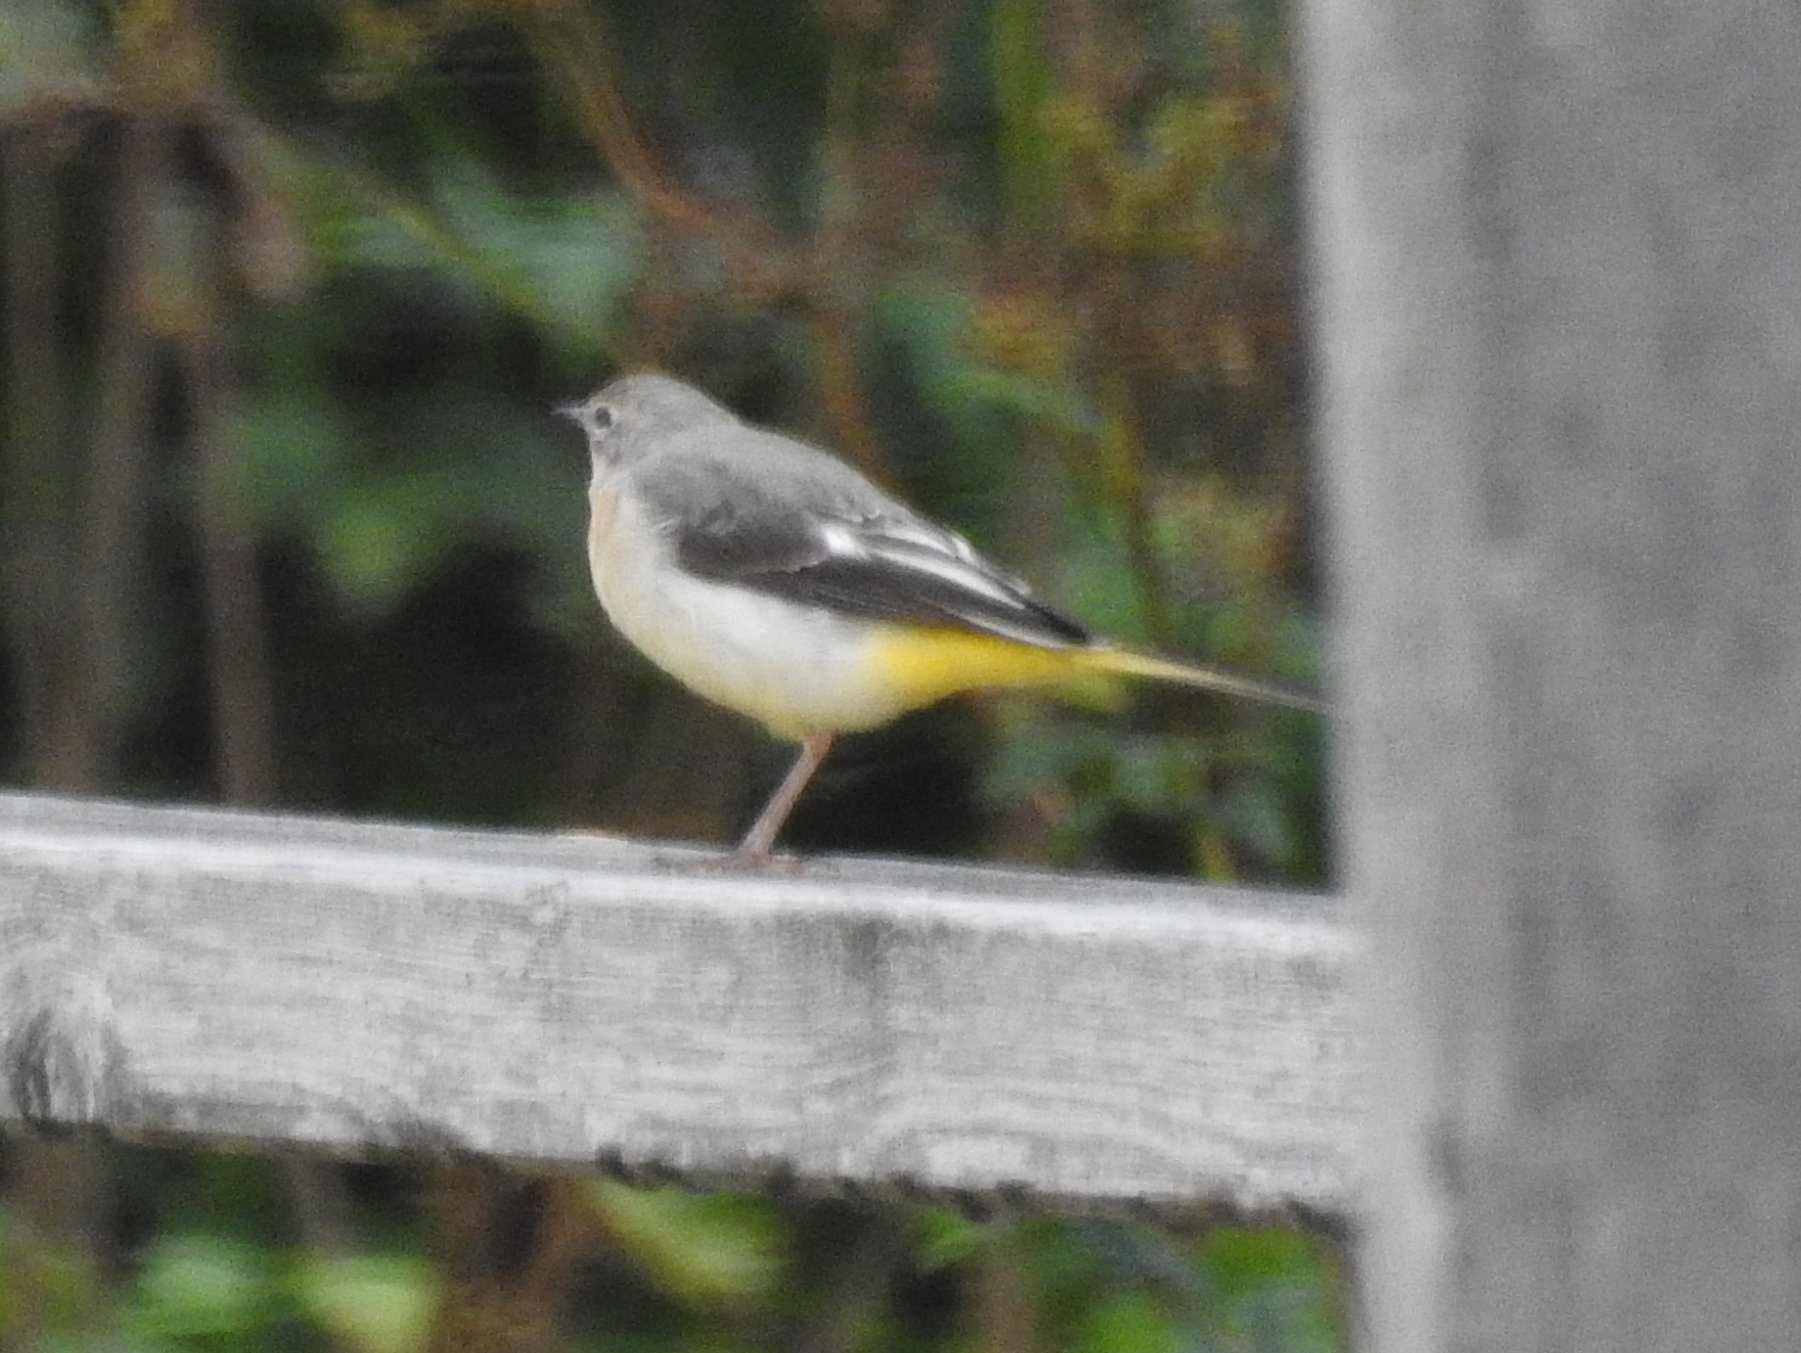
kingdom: Animalia
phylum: Chordata
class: Aves
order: Passeriformes
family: Motacillidae
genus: Motacilla
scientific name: Motacilla cinerea
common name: Grey wagtail
